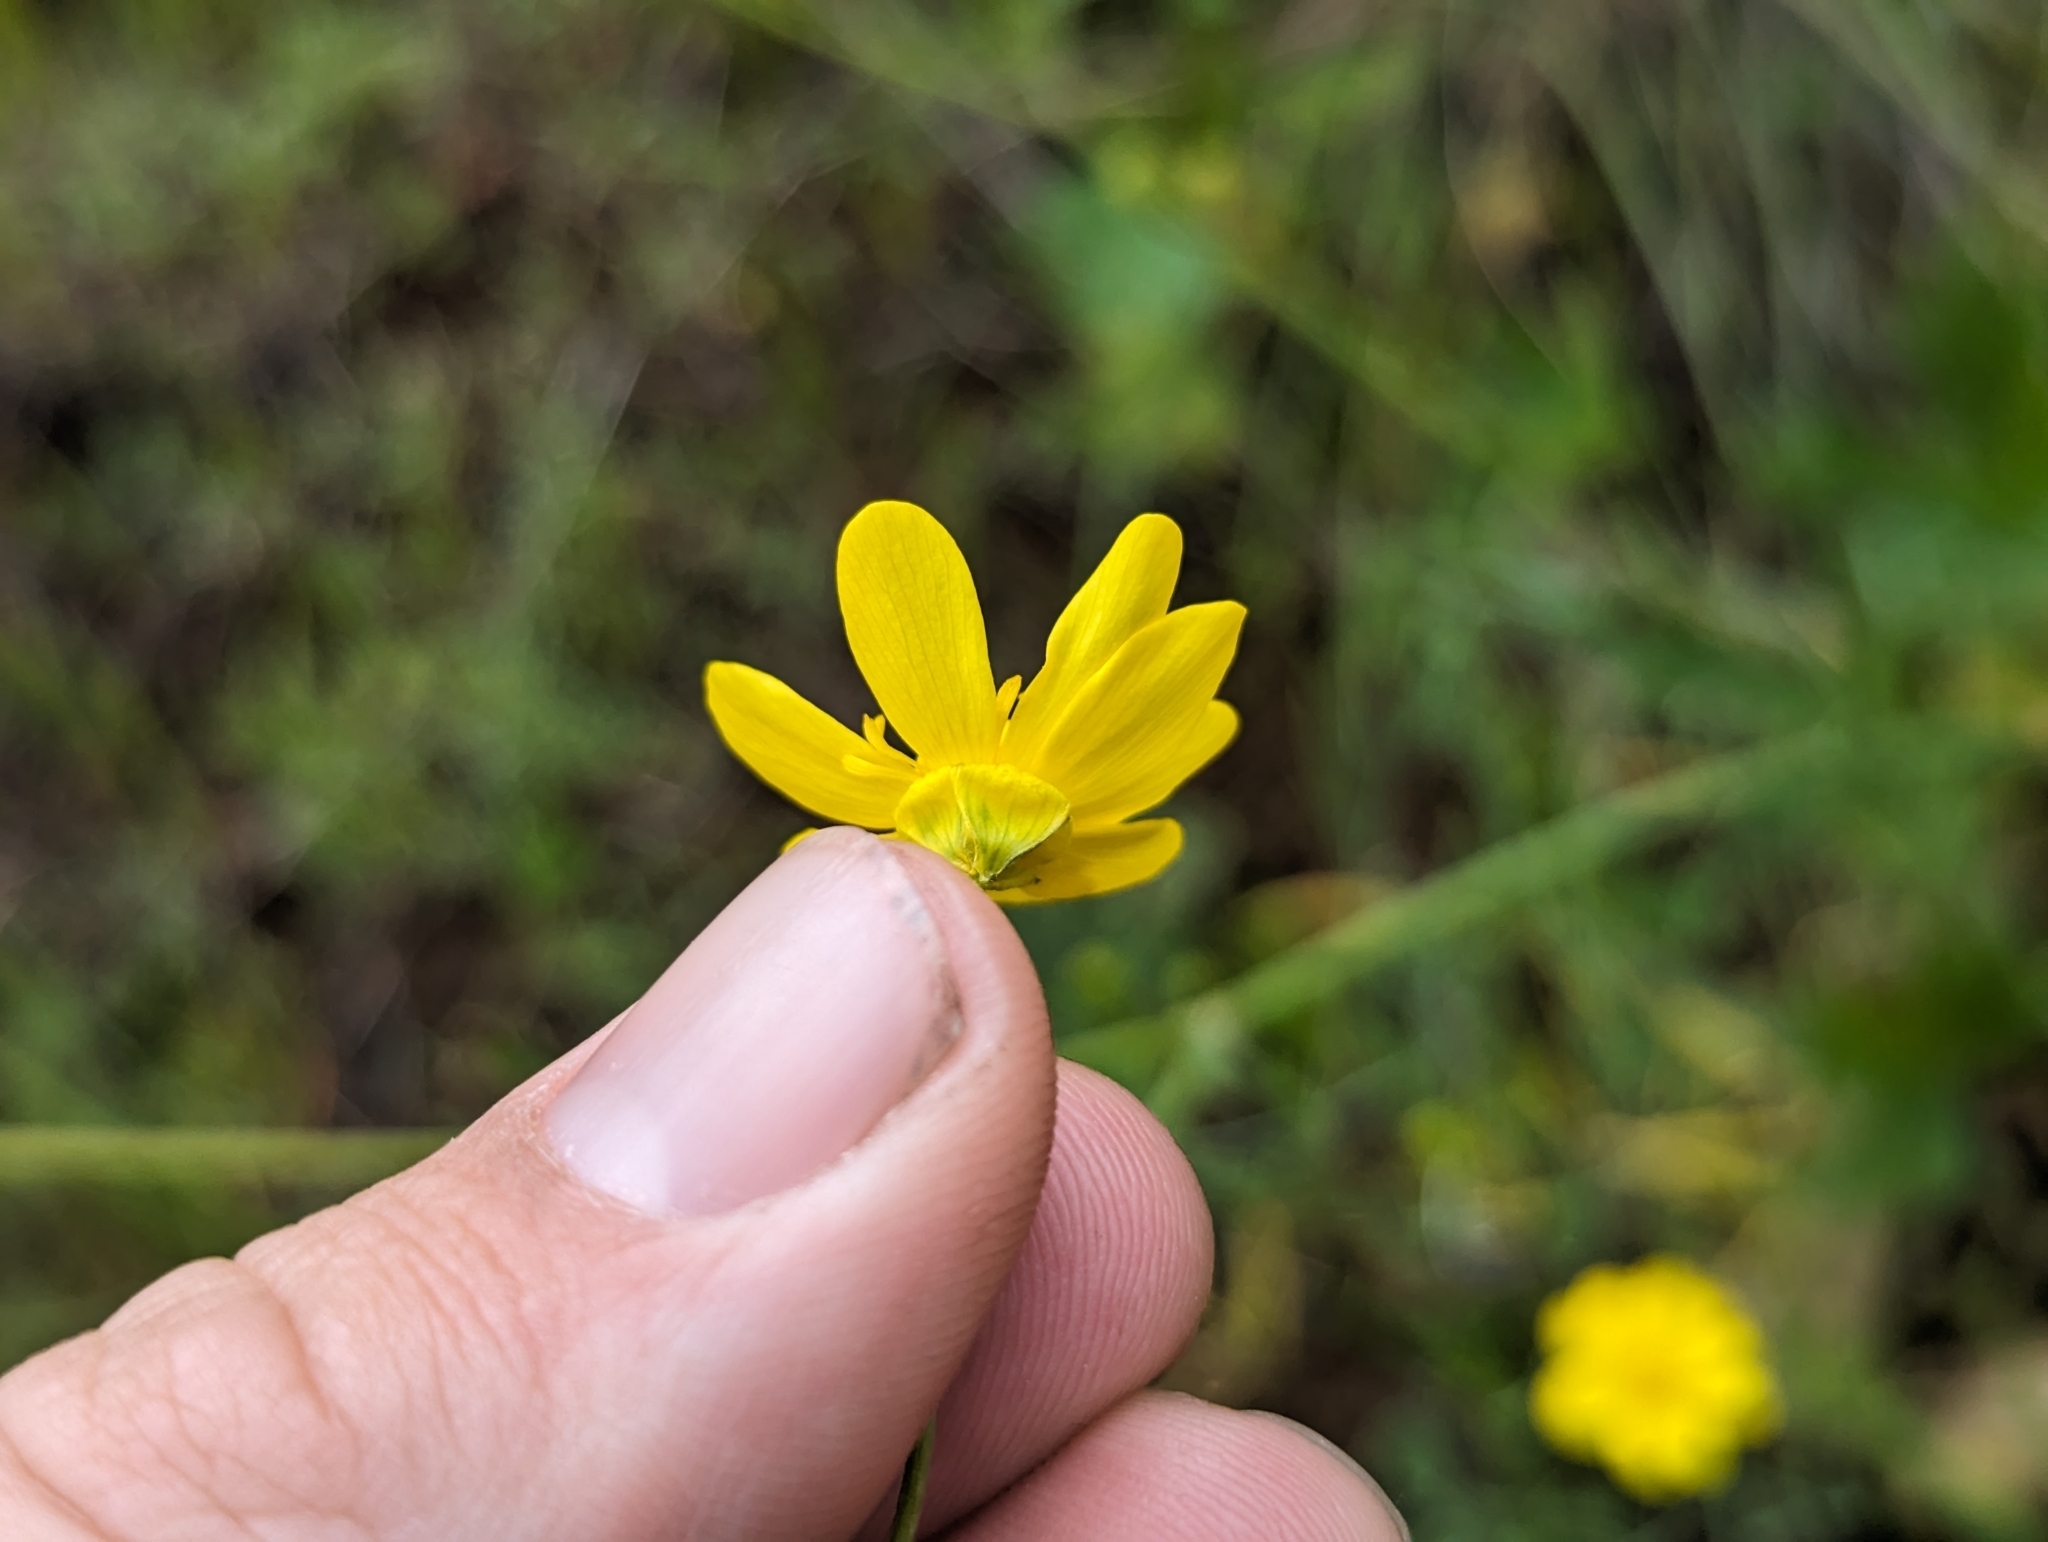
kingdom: Plantae
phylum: Tracheophyta
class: Magnoliopsida
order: Ranunculales
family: Ranunculaceae
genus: Ranunculus
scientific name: Ranunculus californicus
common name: California buttercup
